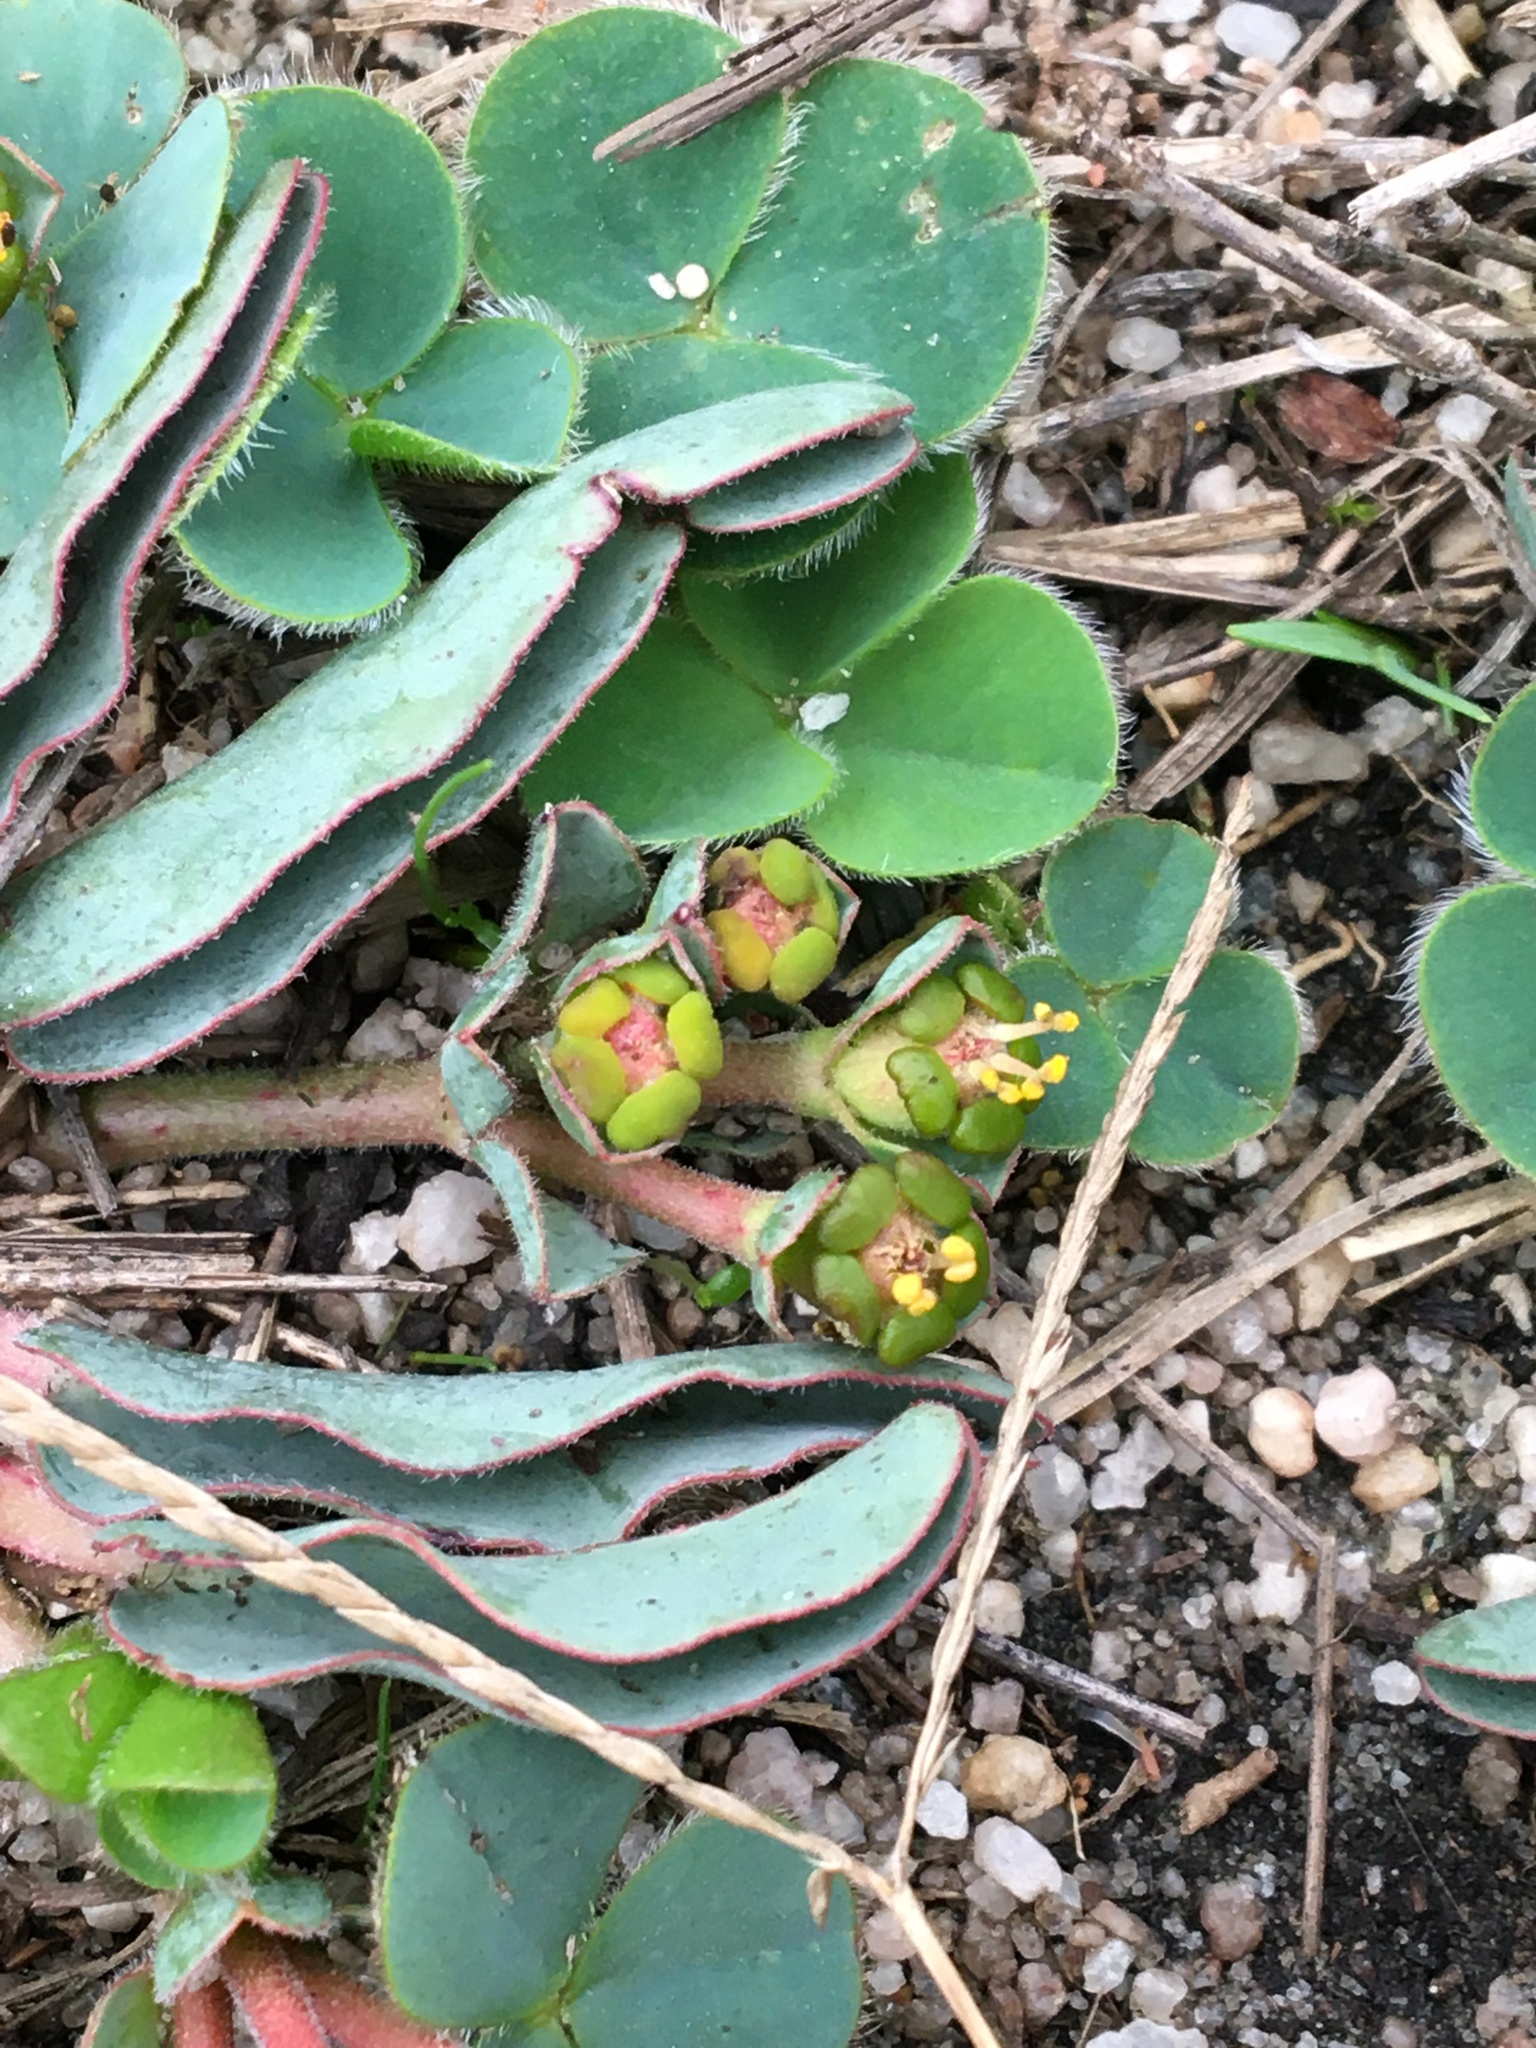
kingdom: Plantae
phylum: Tracheophyta
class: Magnoliopsida
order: Malpighiales
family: Euphorbiaceae
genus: Euphorbia
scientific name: Euphorbia tuberosa
